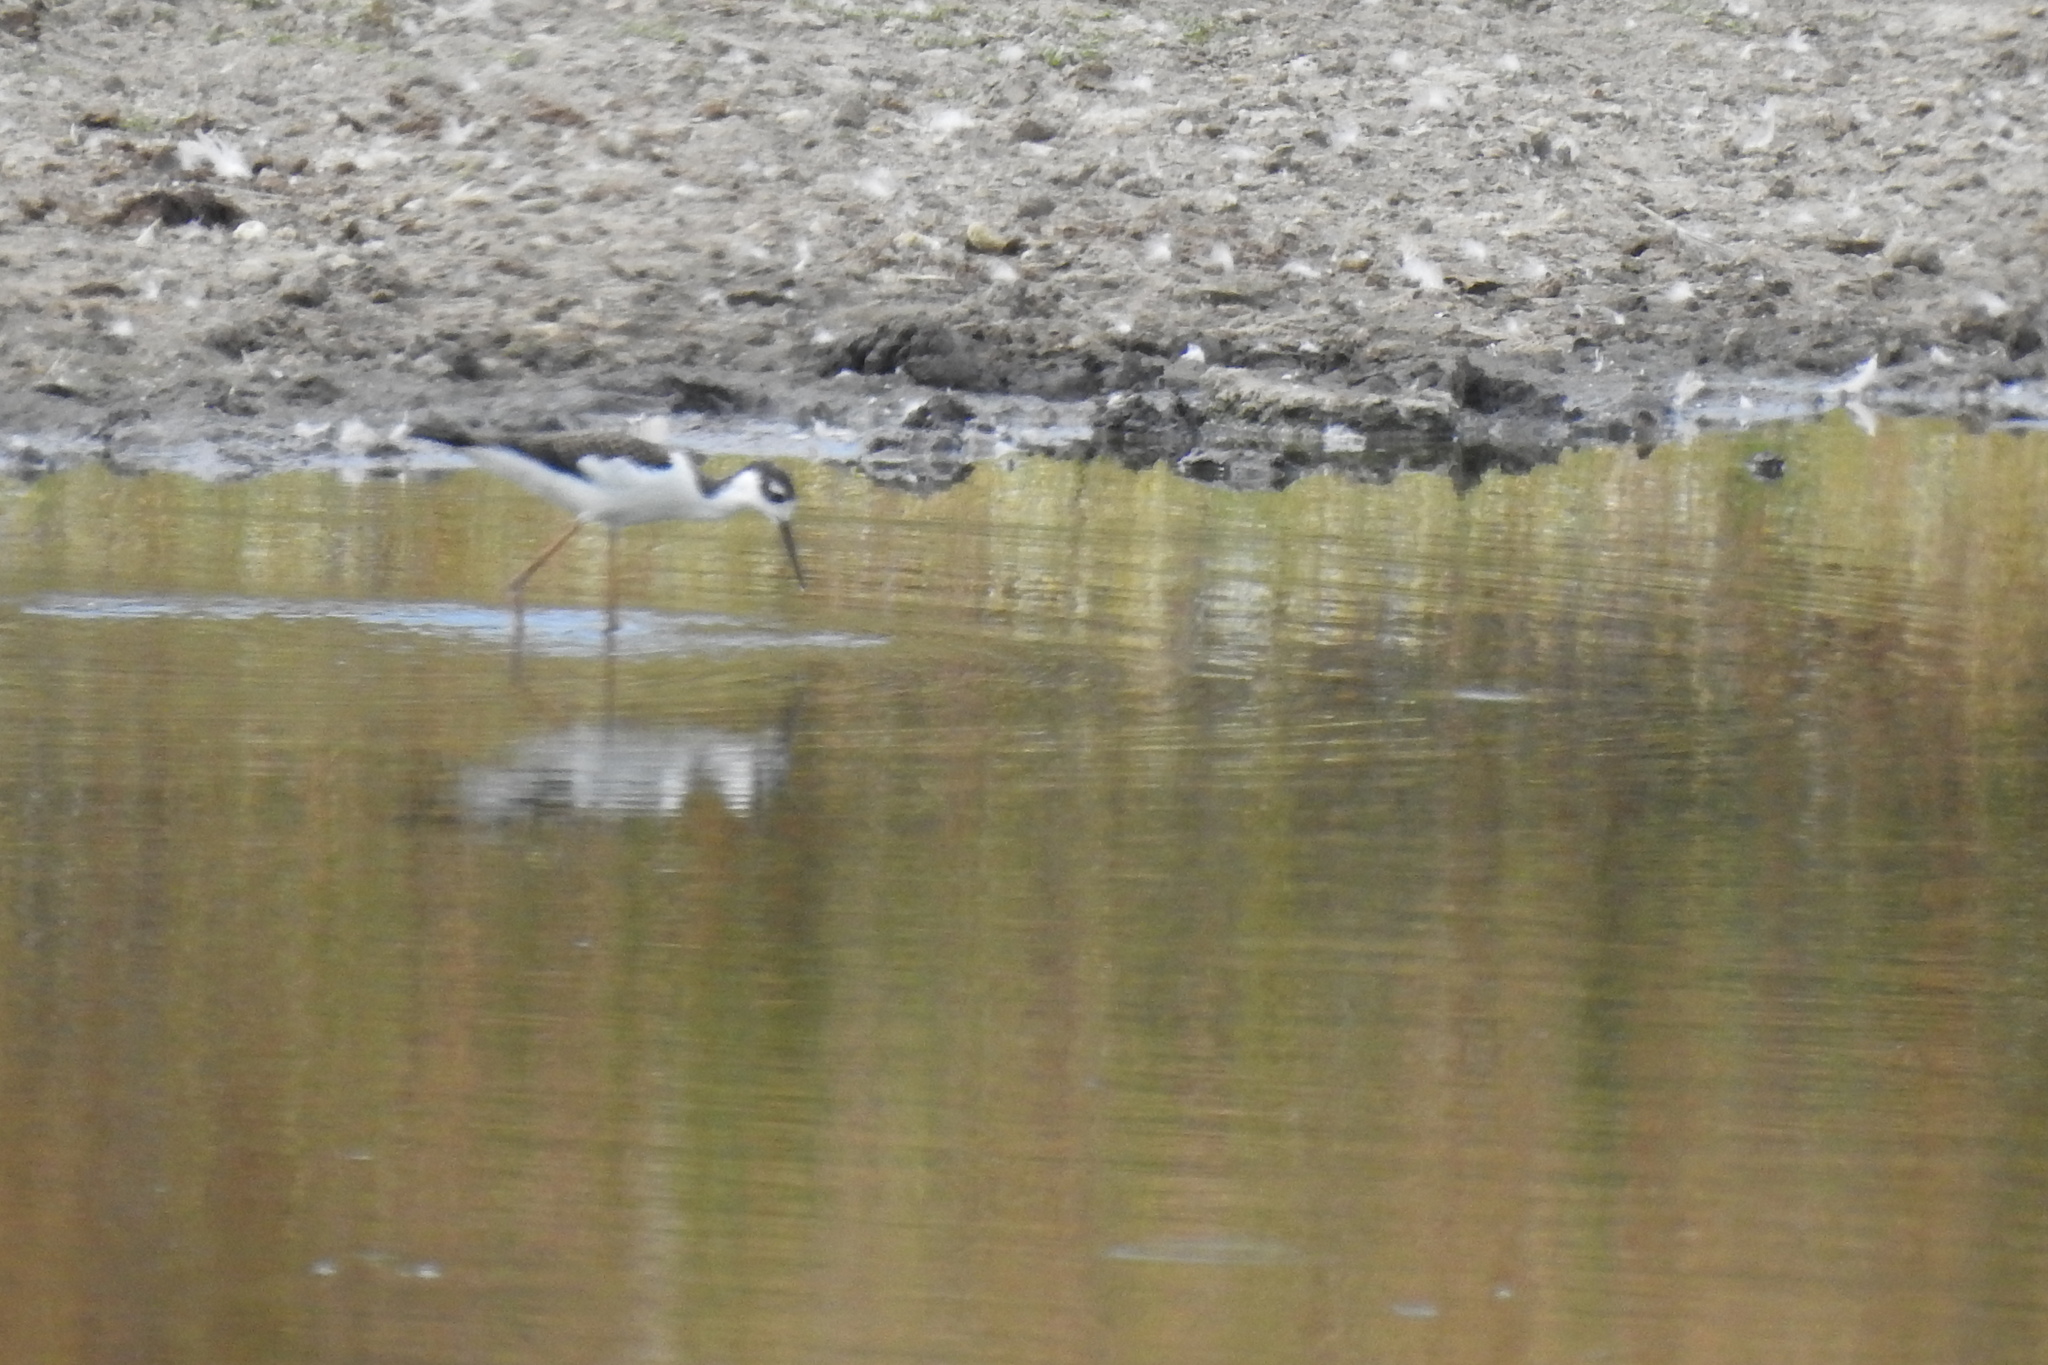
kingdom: Animalia
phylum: Chordata
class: Aves
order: Charadriiformes
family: Recurvirostridae
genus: Himantopus
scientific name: Himantopus mexicanus
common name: Black-necked stilt
